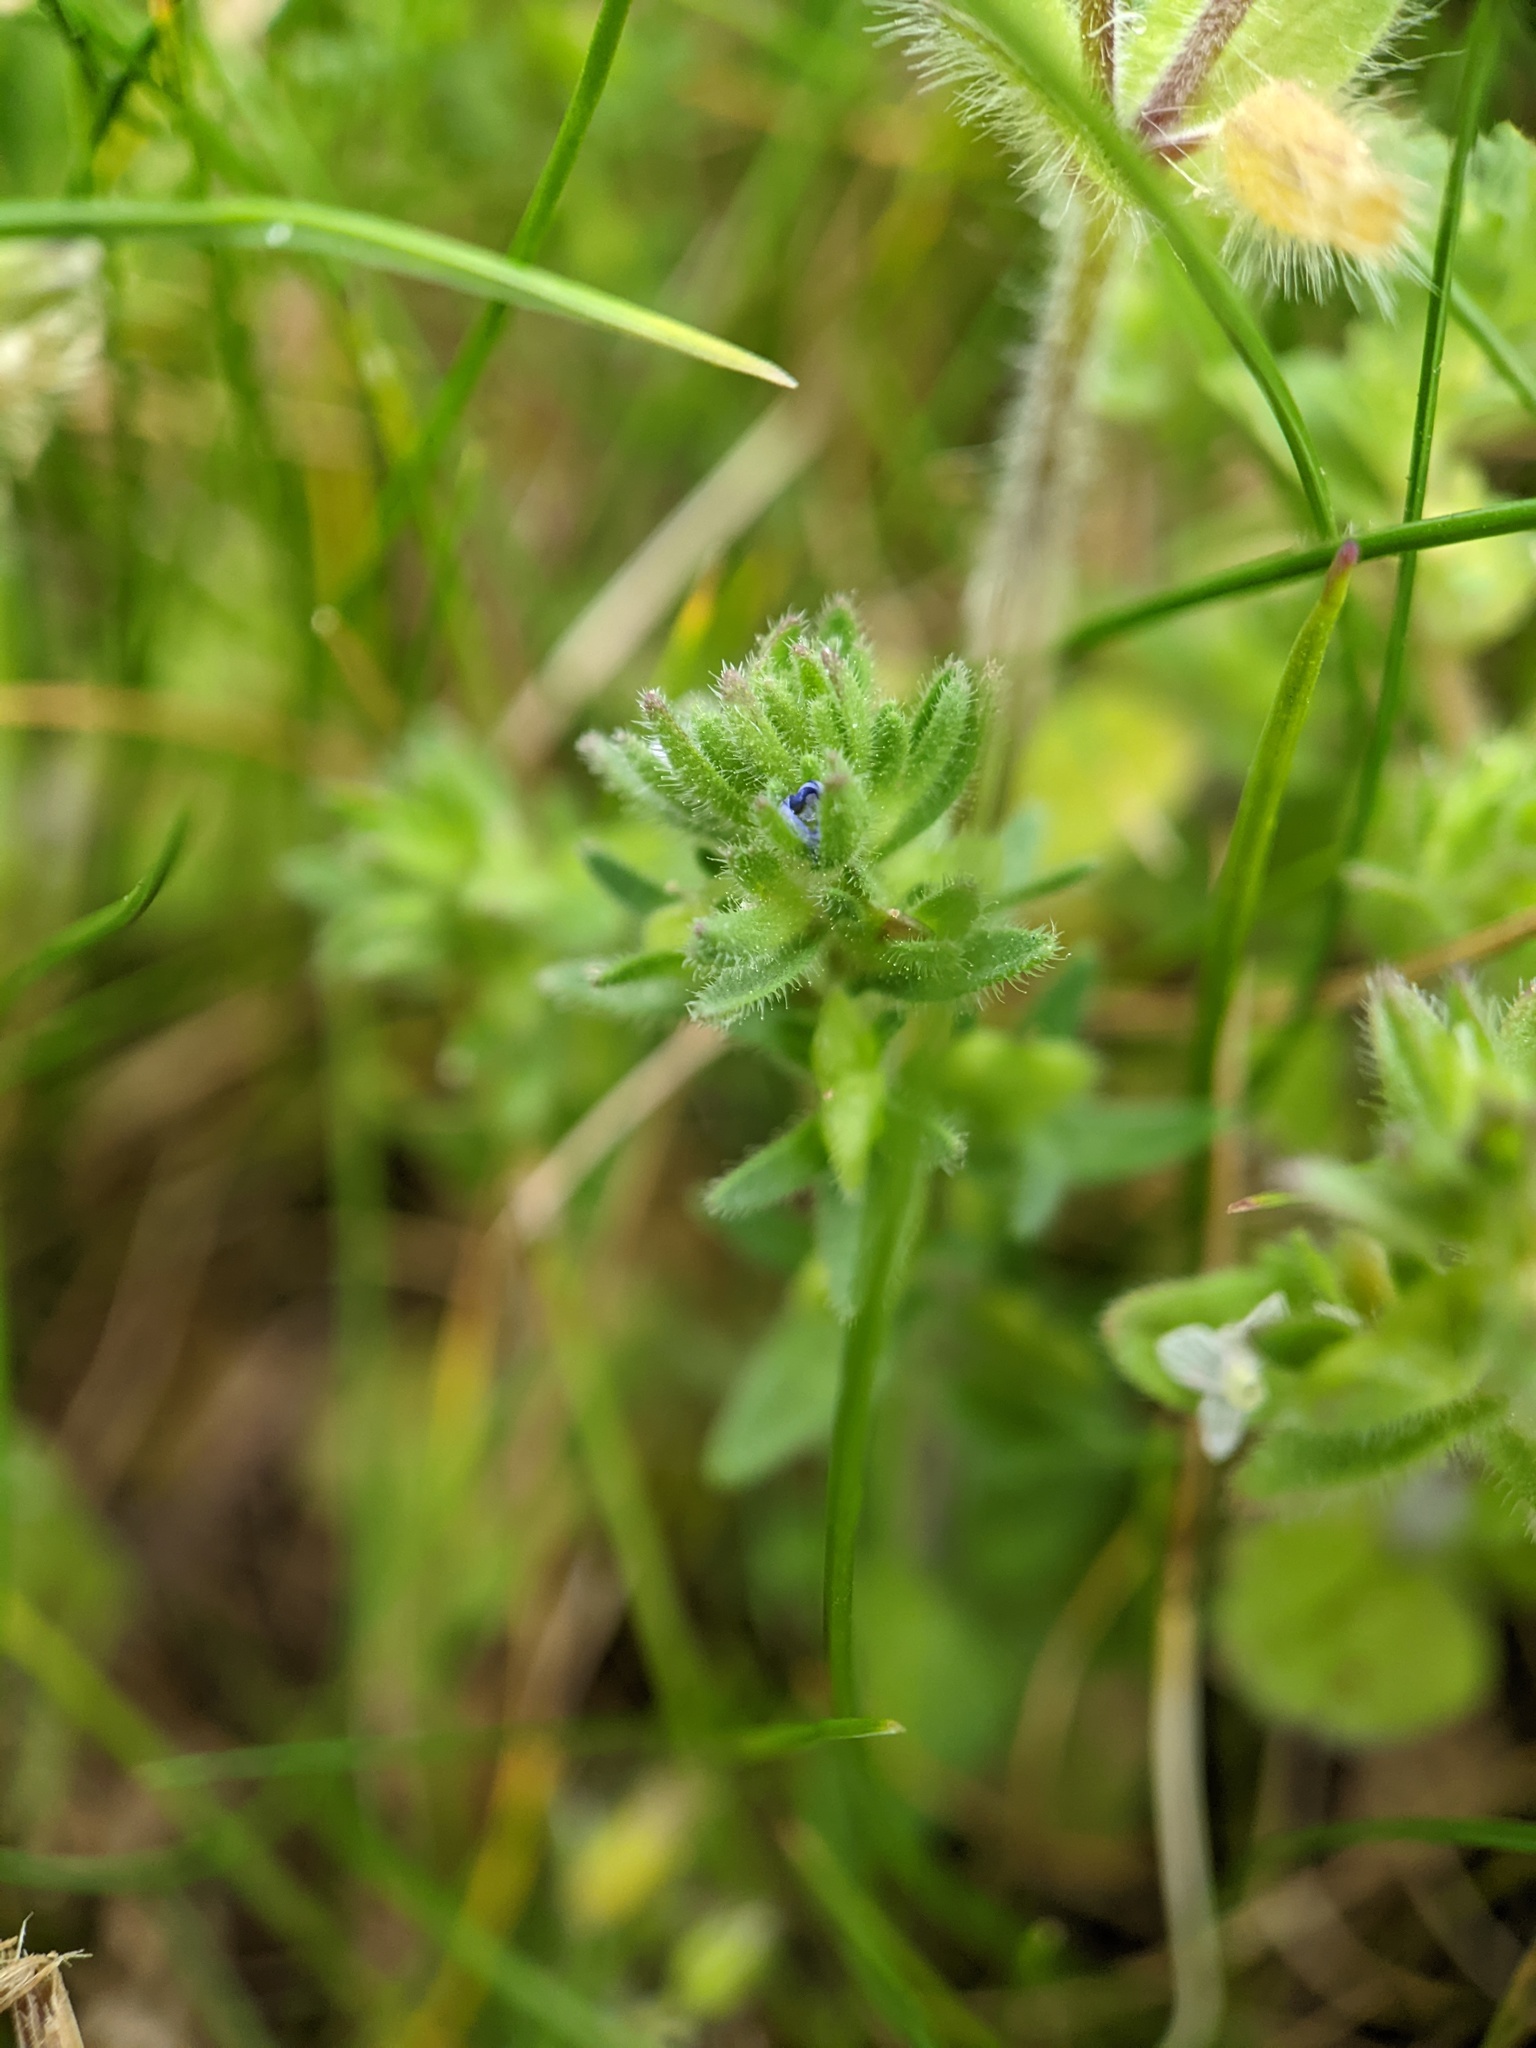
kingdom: Plantae
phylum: Tracheophyta
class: Magnoliopsida
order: Lamiales
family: Plantaginaceae
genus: Veronica
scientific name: Veronica arvensis
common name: Corn speedwell
